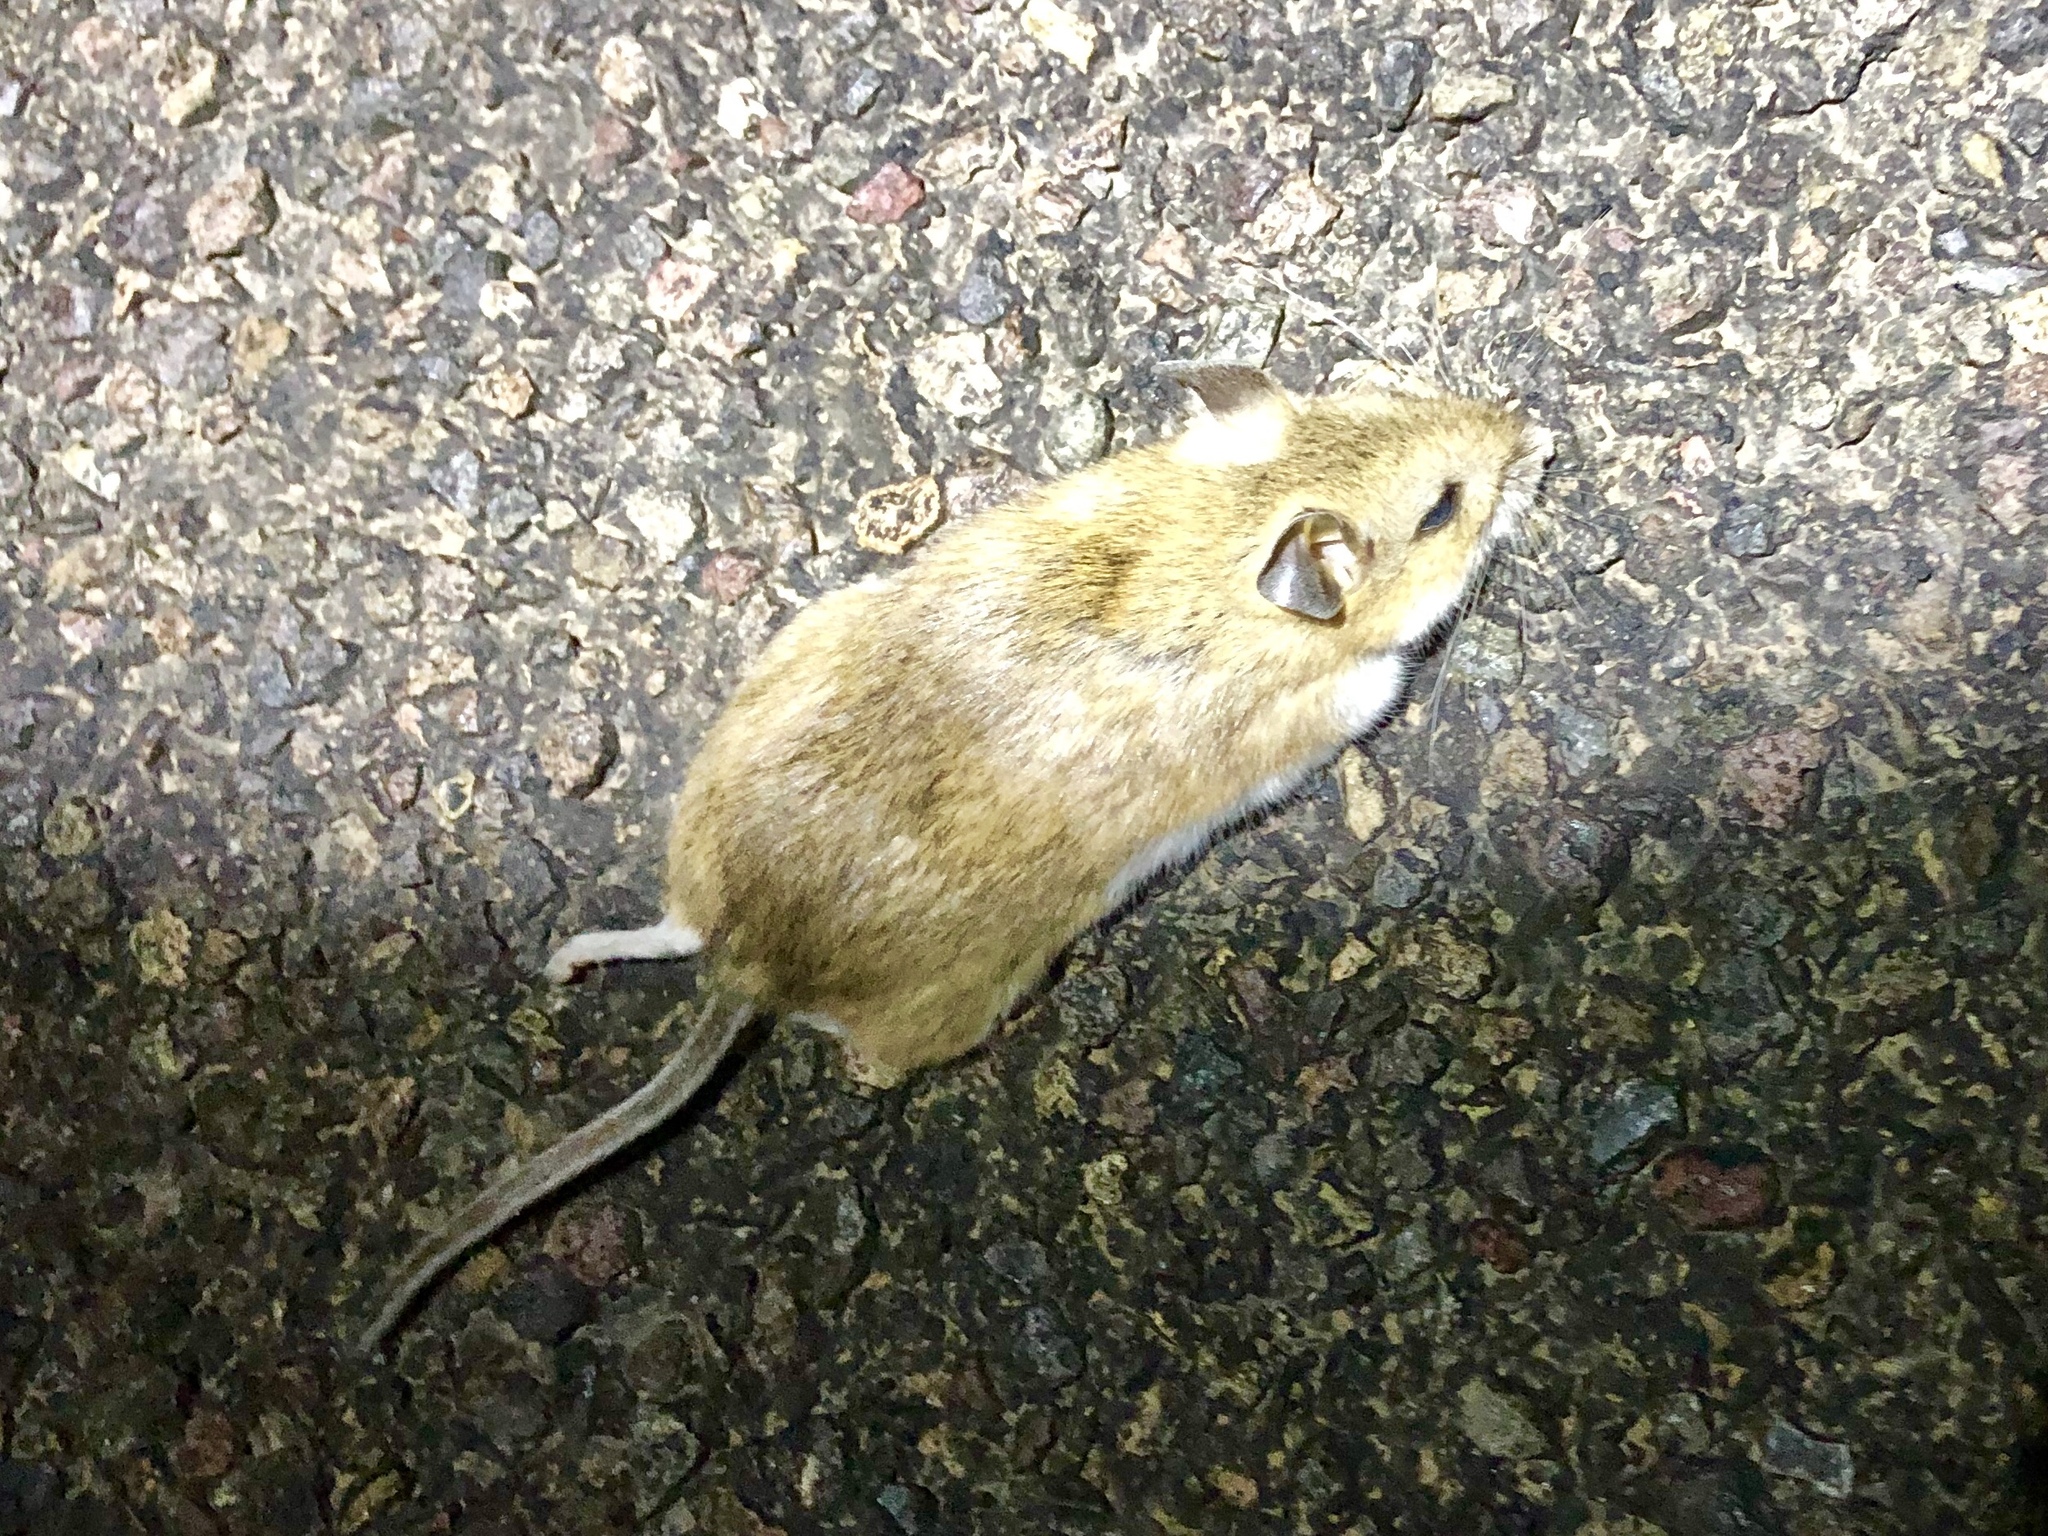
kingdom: Animalia
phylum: Chordata
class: Mammalia
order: Rodentia
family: Cricetidae
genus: Peromyscus
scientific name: Peromyscus maniculatus
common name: Deer mouse
